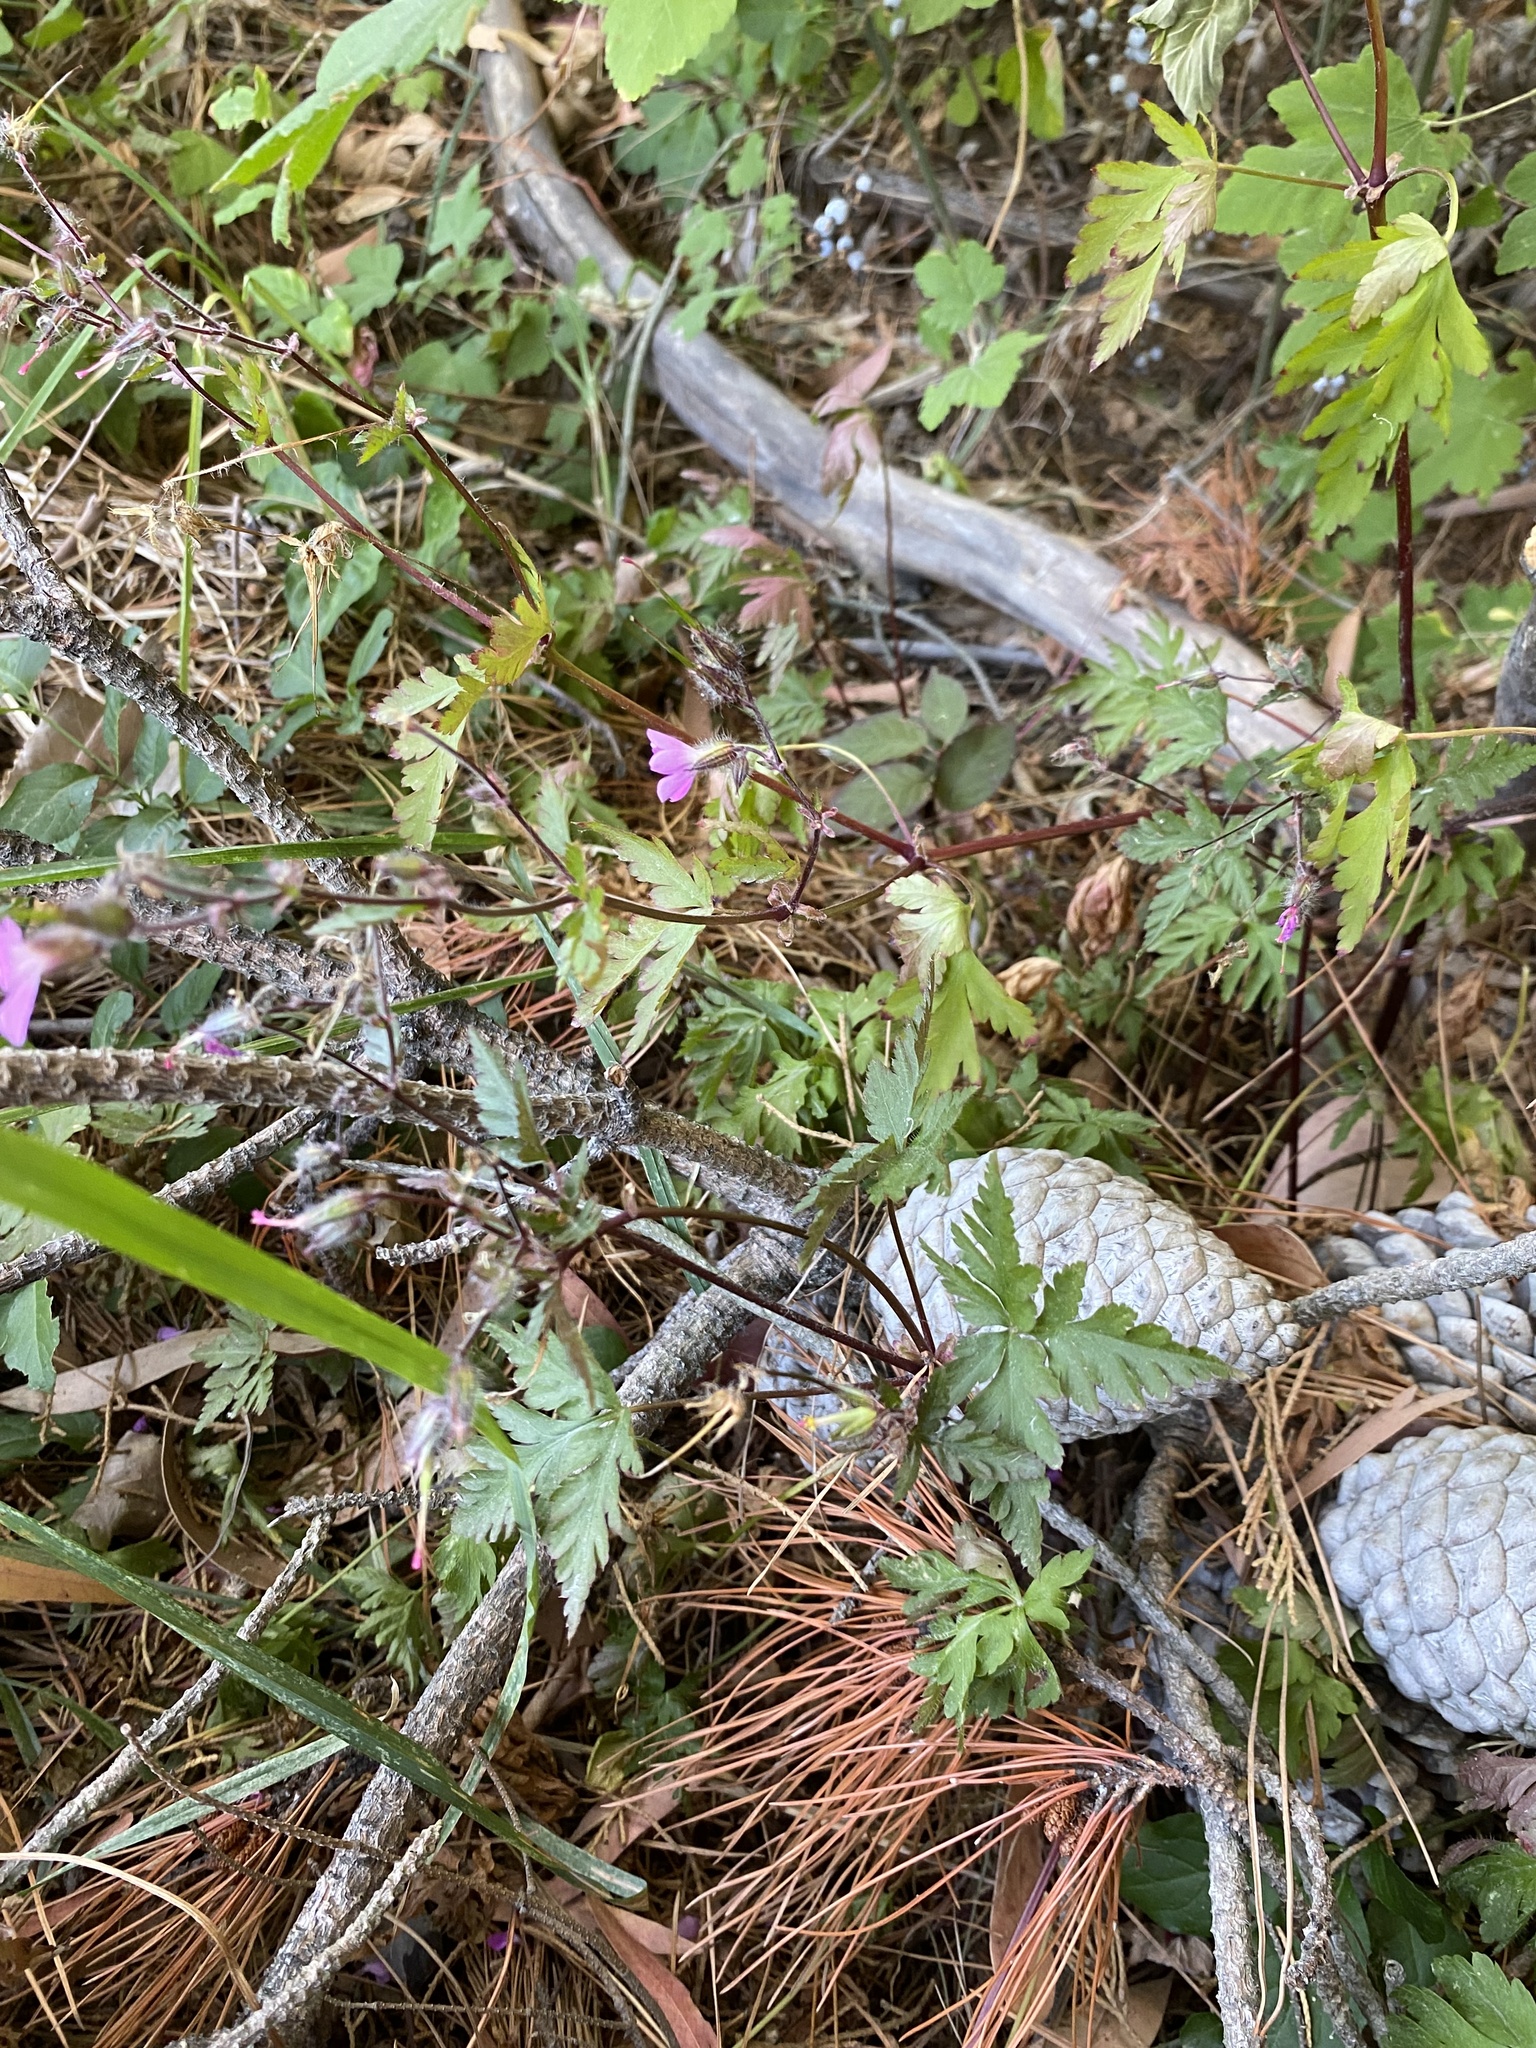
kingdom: Plantae
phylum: Tracheophyta
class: Magnoliopsida
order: Geraniales
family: Geraniaceae
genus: Geranium
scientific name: Geranium robertianum
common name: Herb-robert
